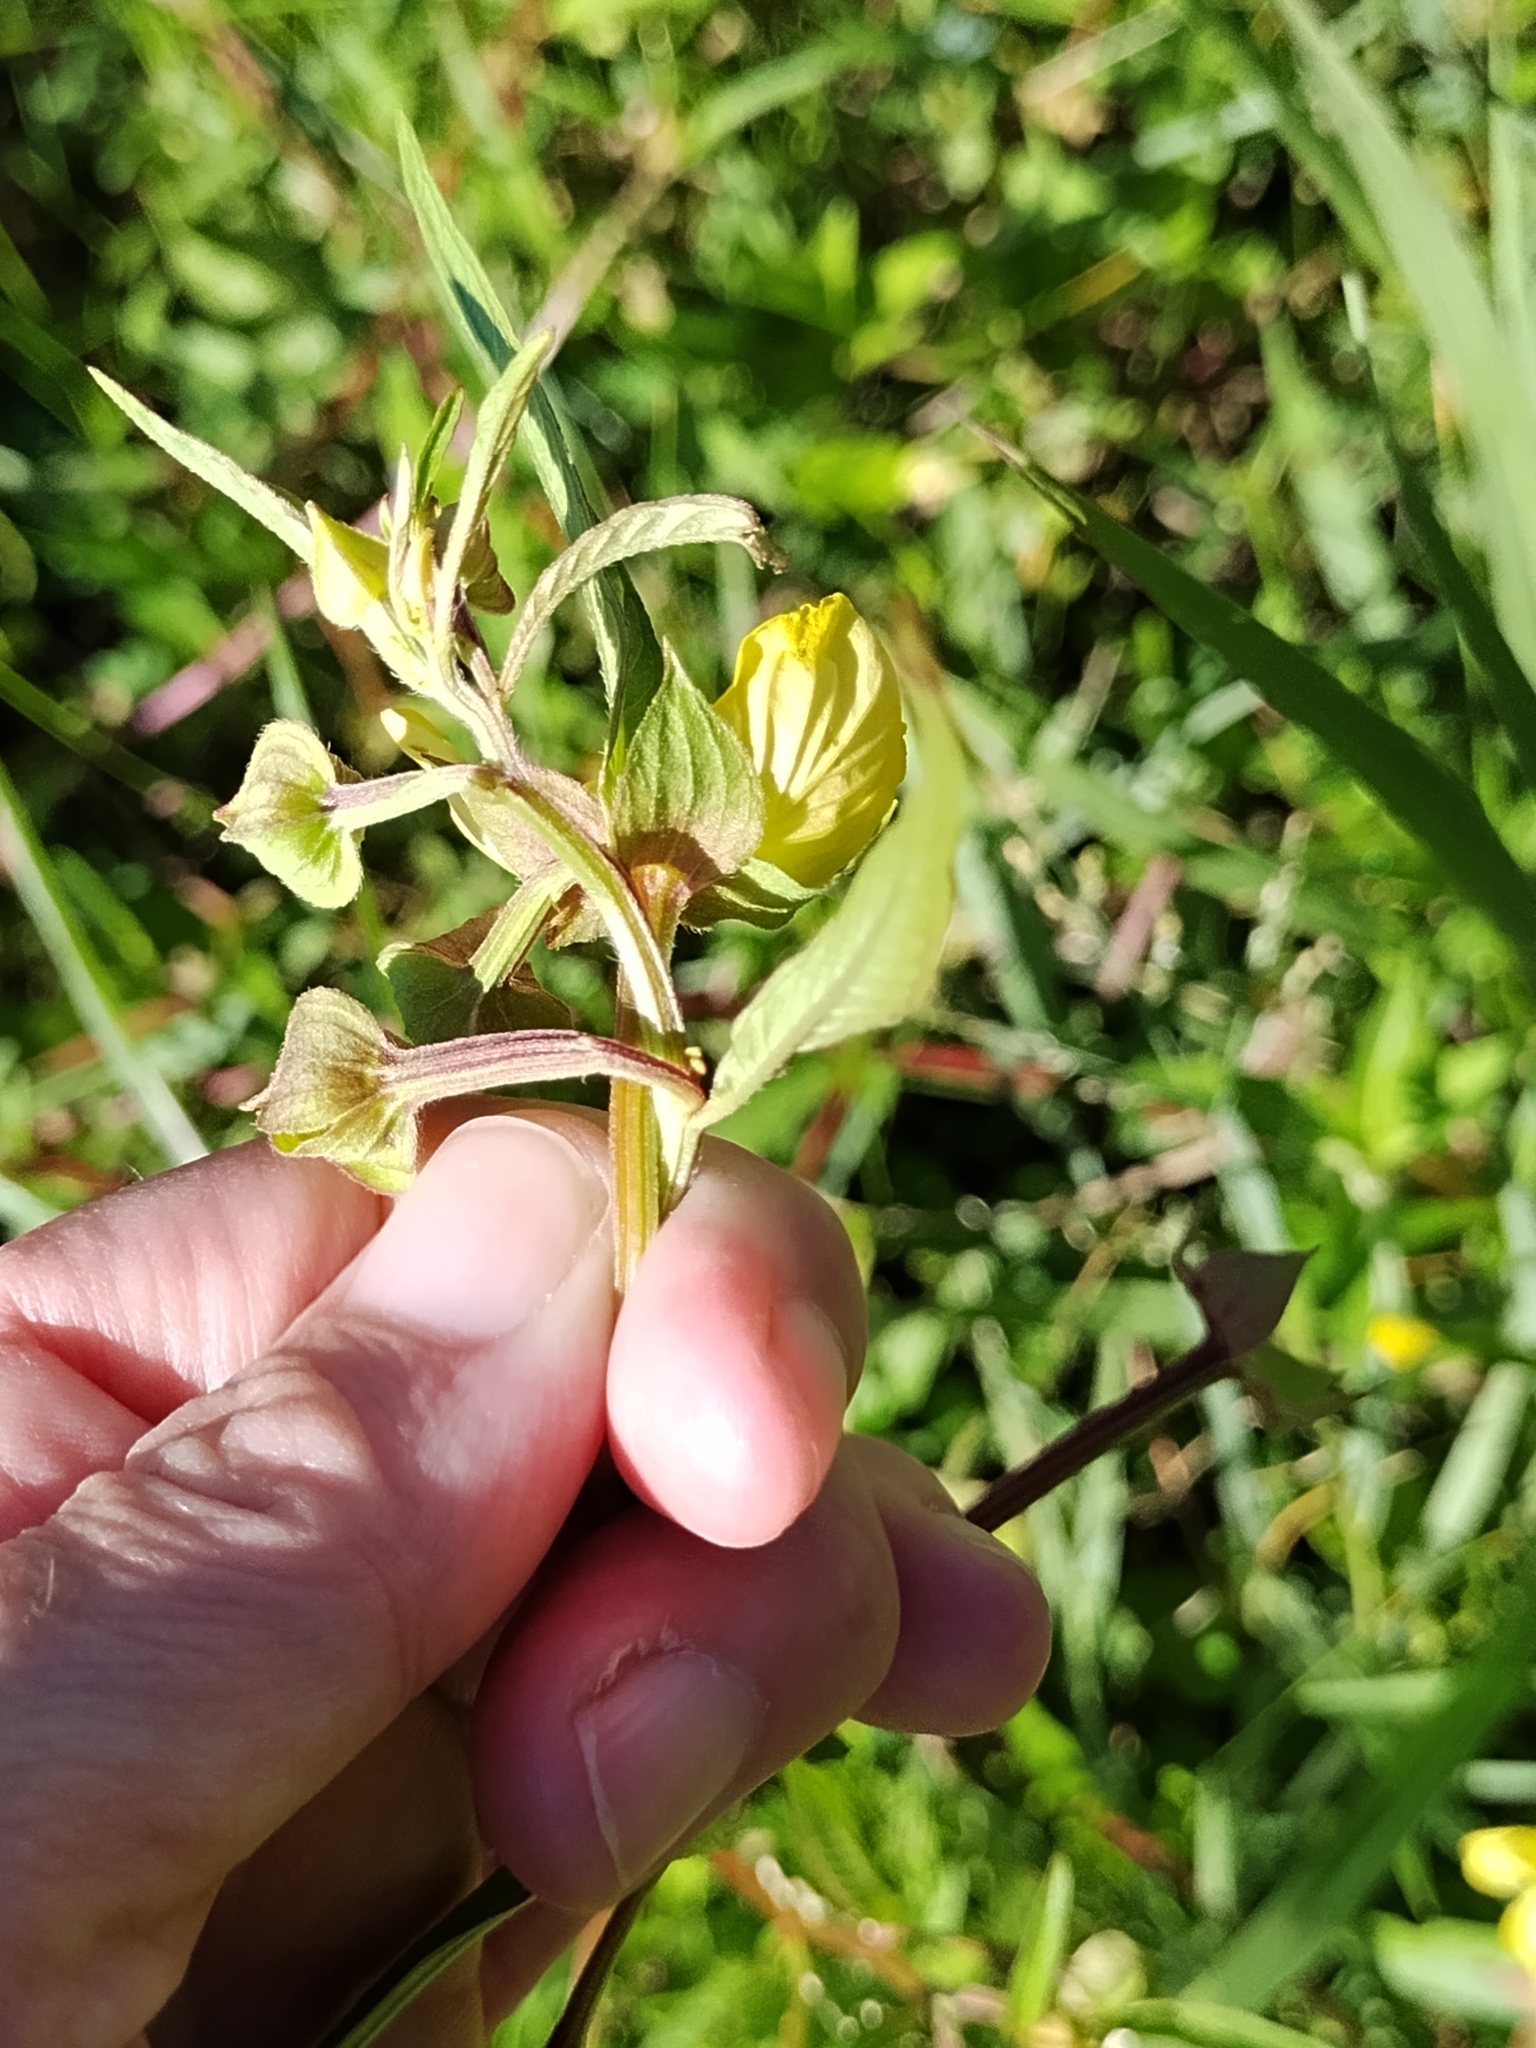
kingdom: Plantae
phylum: Tracheophyta
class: Magnoliopsida
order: Myrtales
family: Onagraceae
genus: Ludwigia
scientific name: Ludwigia octovalvis
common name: Water-primrose
